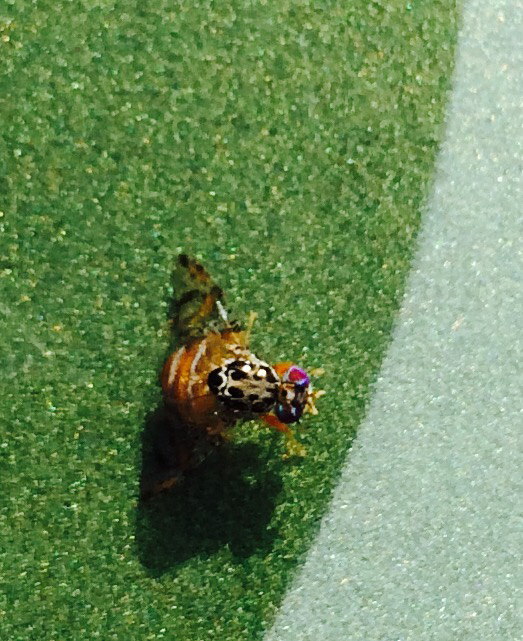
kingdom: Animalia
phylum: Arthropoda
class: Insecta
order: Diptera
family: Tephritidae
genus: Ceratitis
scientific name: Ceratitis capitata
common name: Mediterranean fruit fly
